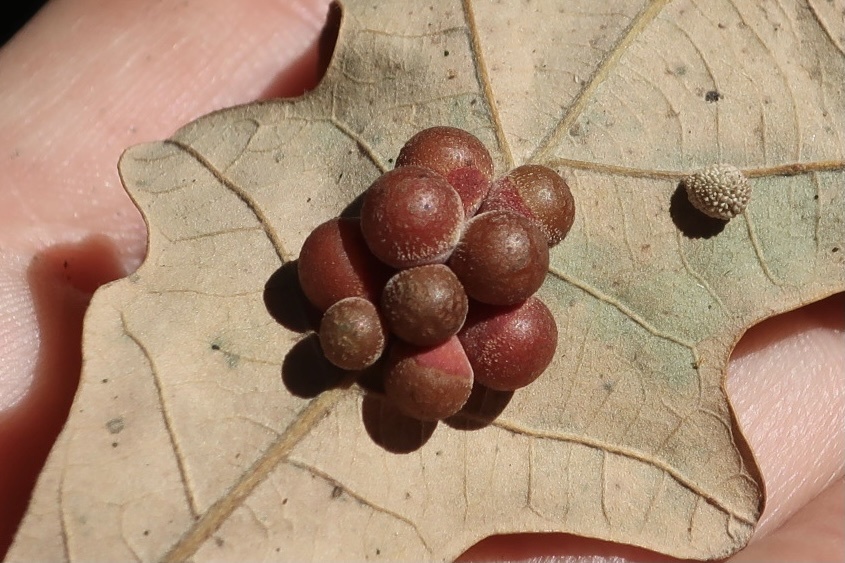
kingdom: Animalia
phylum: Arthropoda
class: Insecta
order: Hymenoptera
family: Cynipidae
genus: Andricus
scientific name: Andricus
